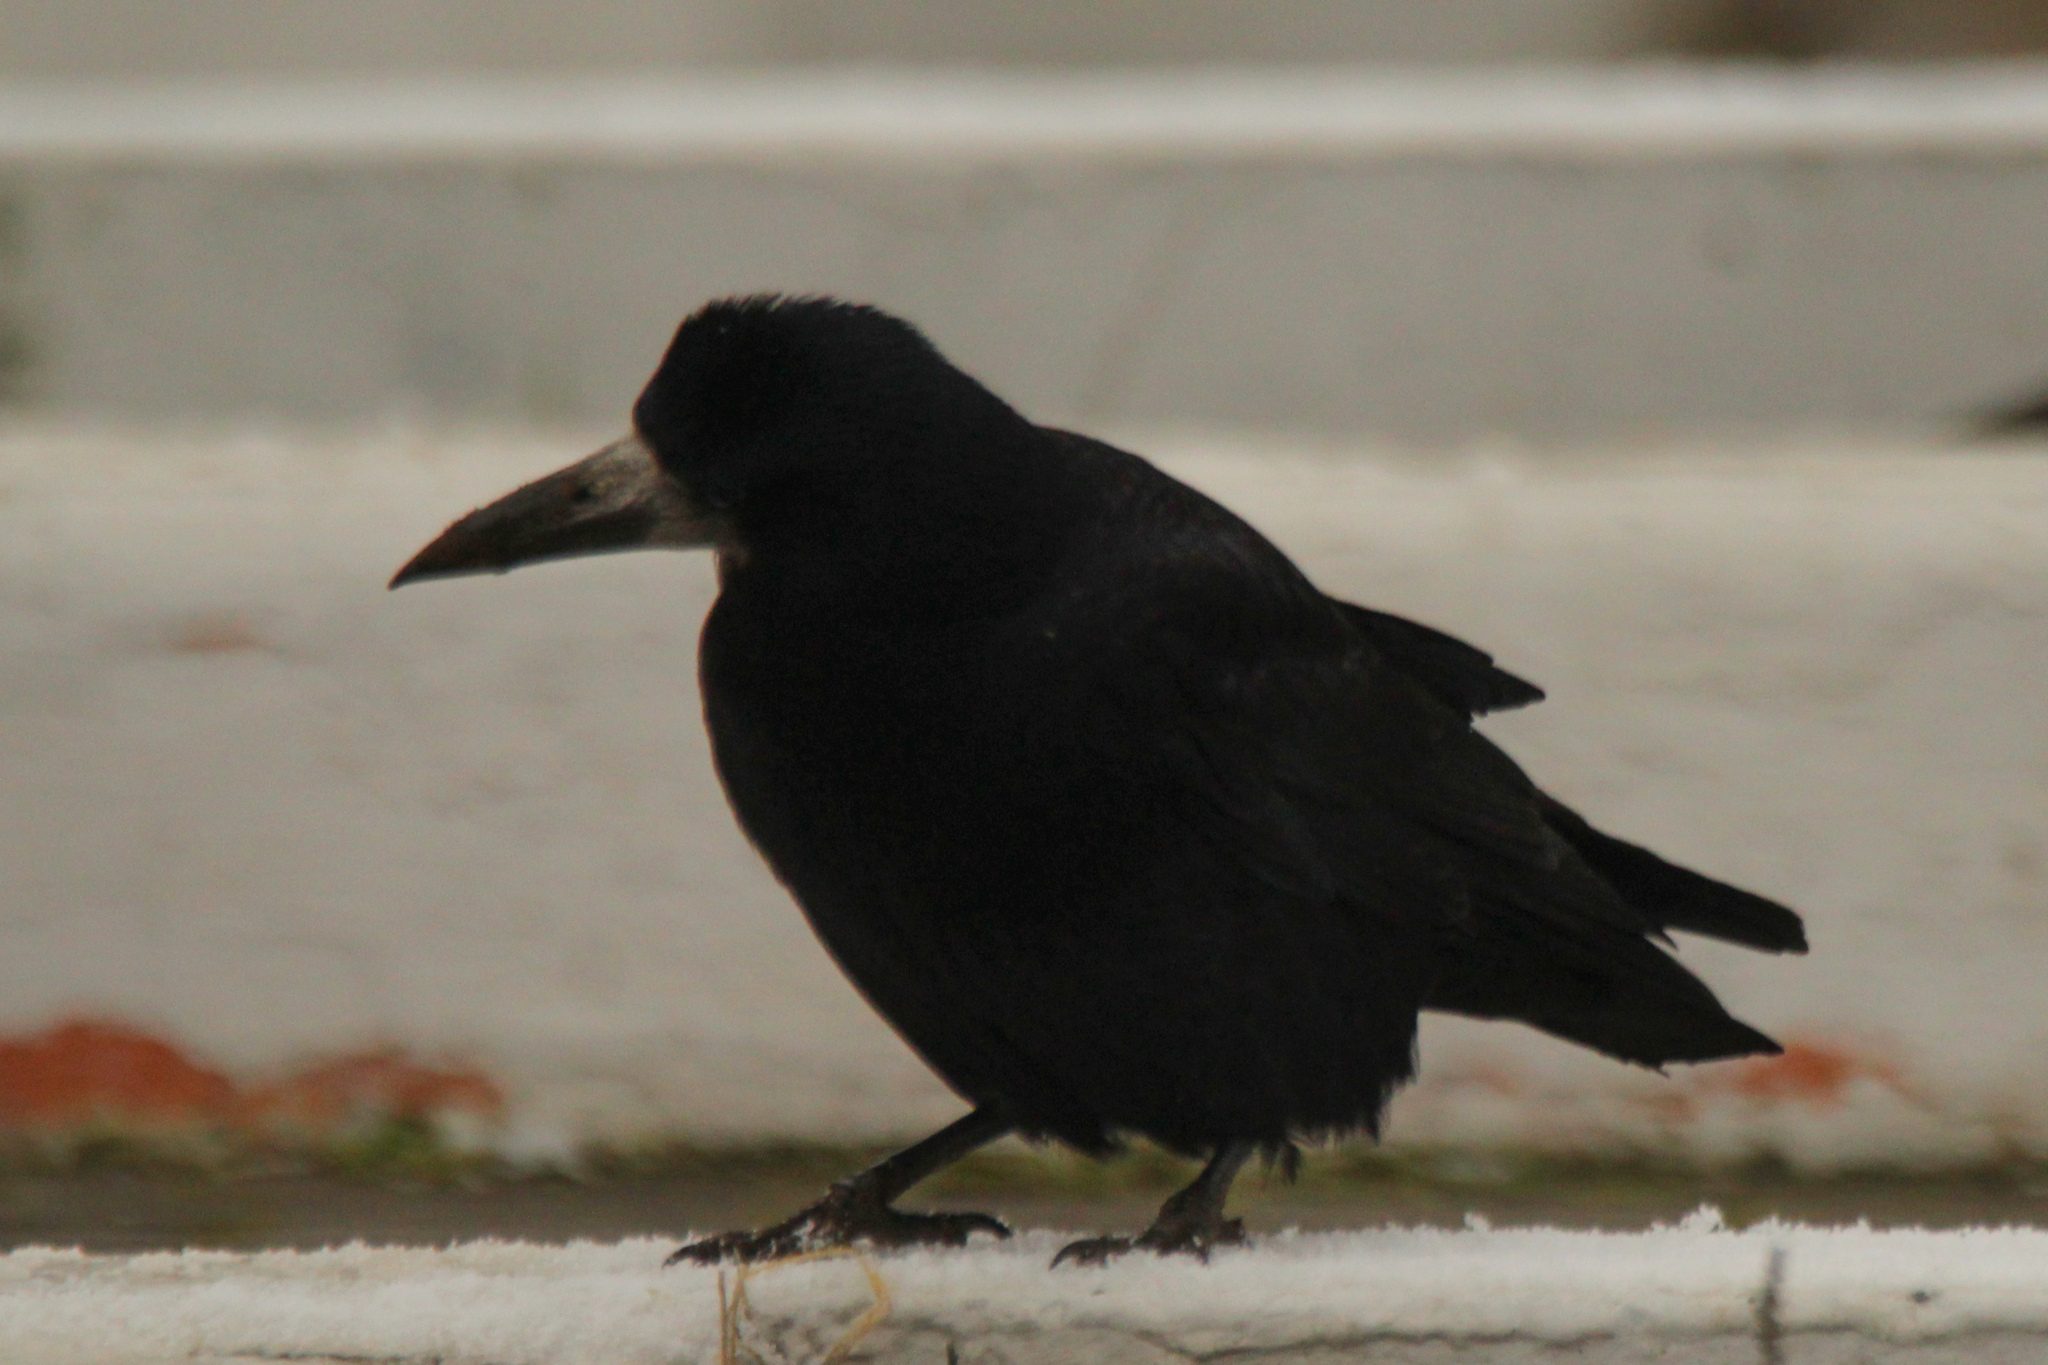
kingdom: Animalia
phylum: Chordata
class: Aves
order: Passeriformes
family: Corvidae
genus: Corvus
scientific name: Corvus frugilegus
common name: Rook
